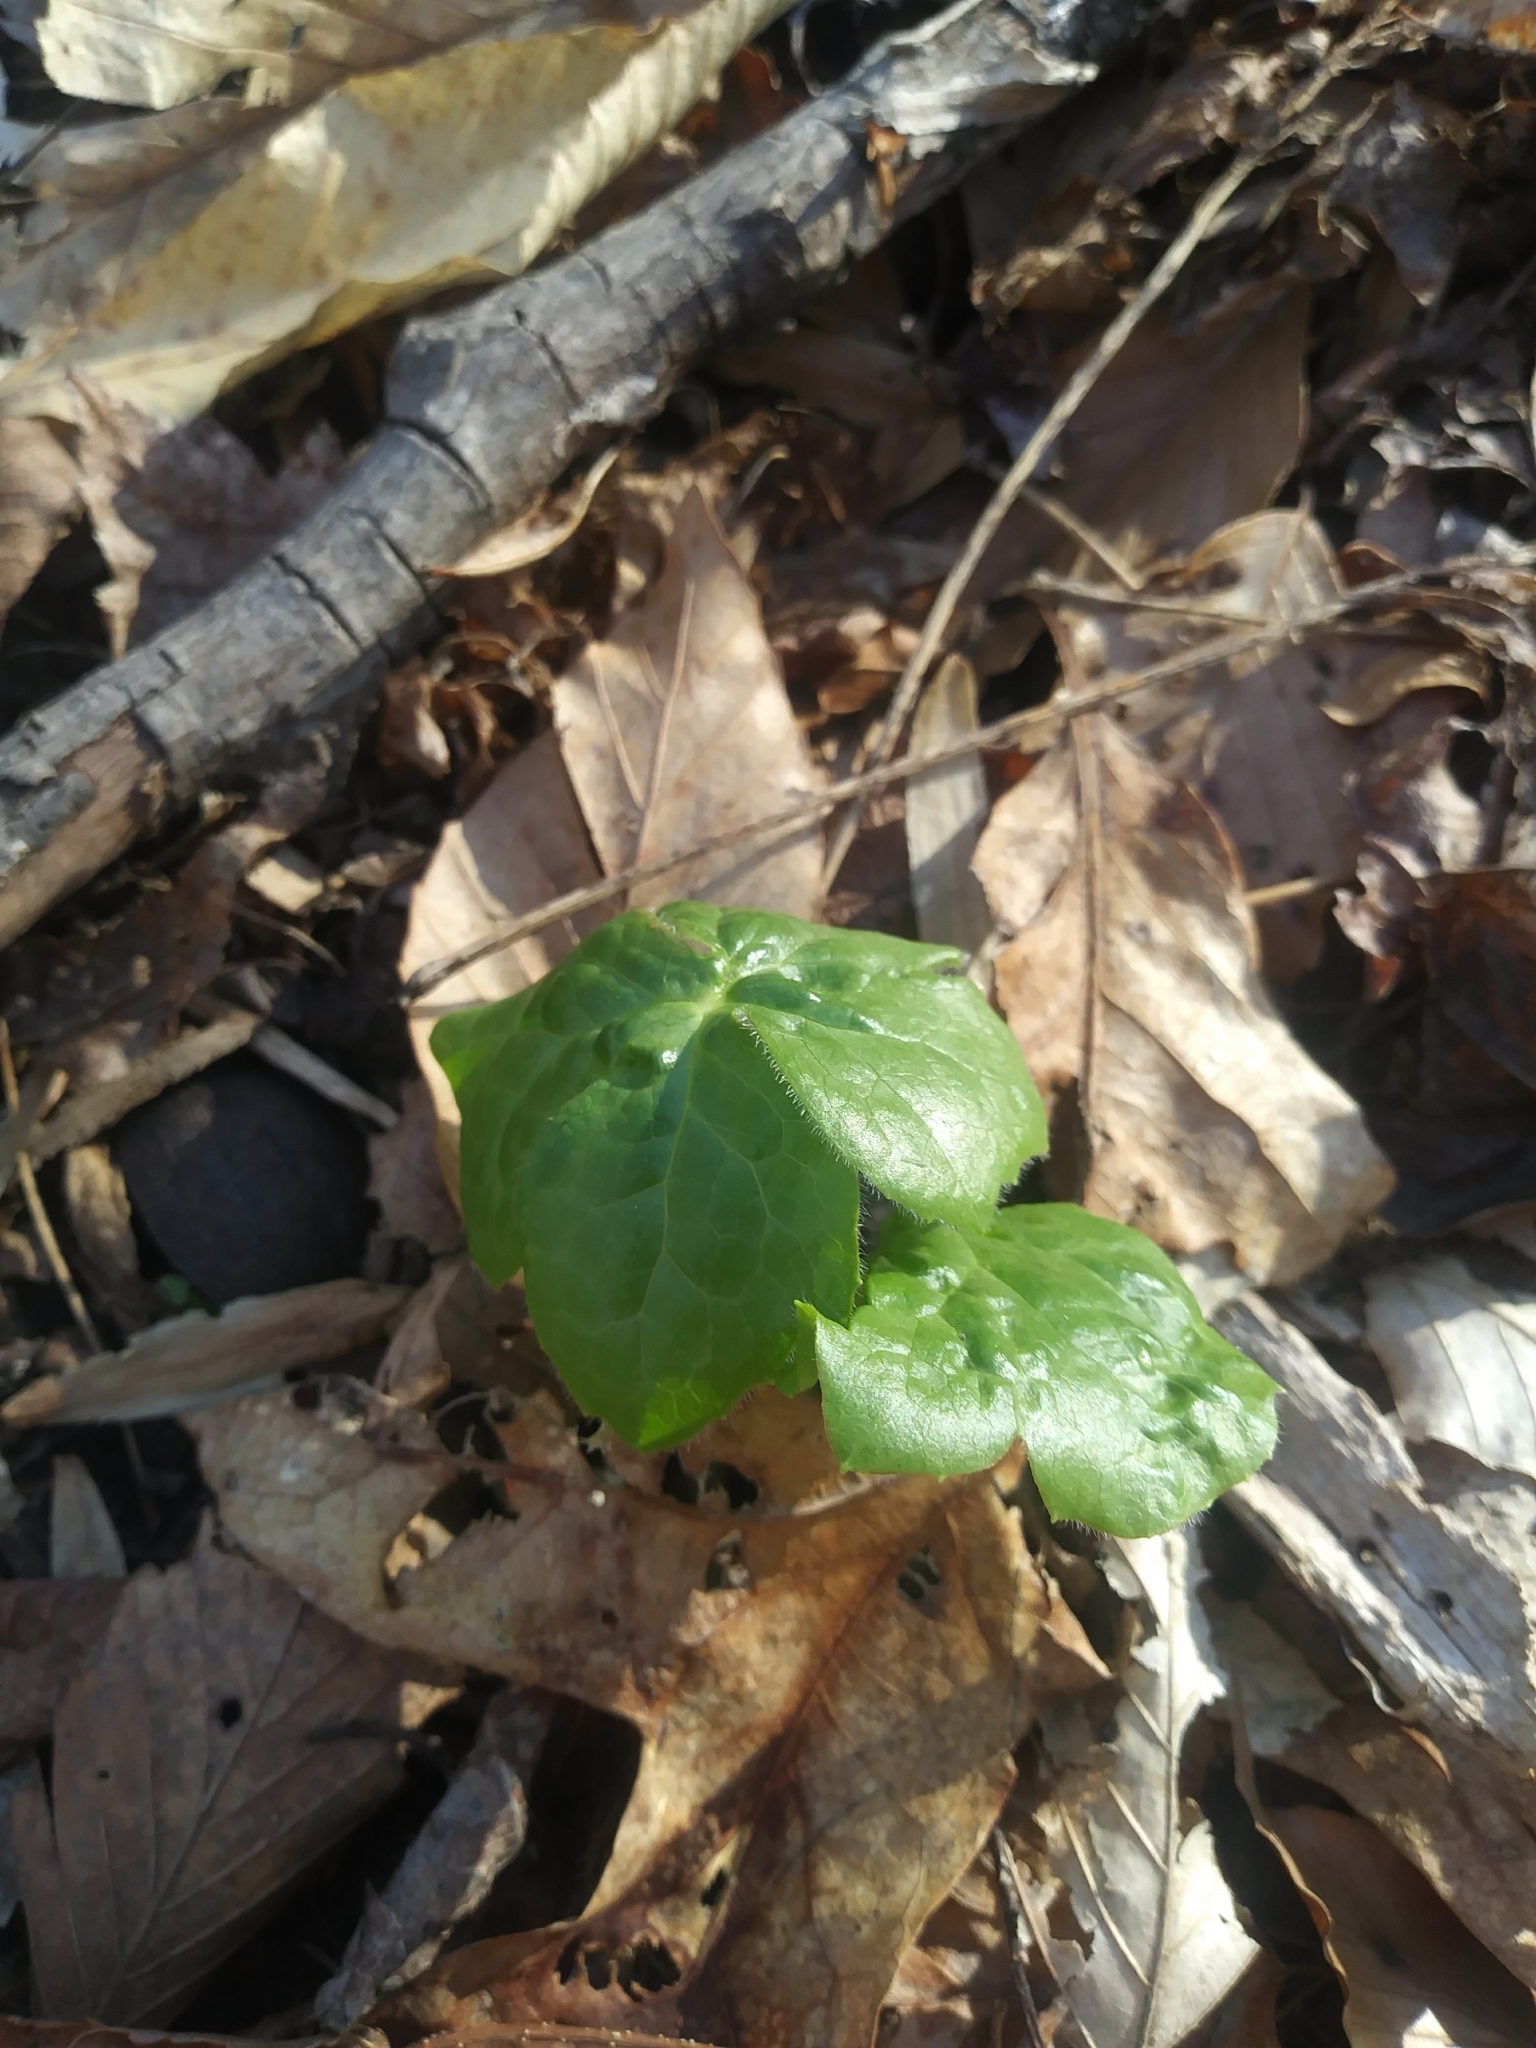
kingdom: Plantae
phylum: Tracheophyta
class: Magnoliopsida
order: Ranunculales
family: Berberidaceae
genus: Podophyllum
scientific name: Podophyllum peltatum
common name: Wild mandrake
